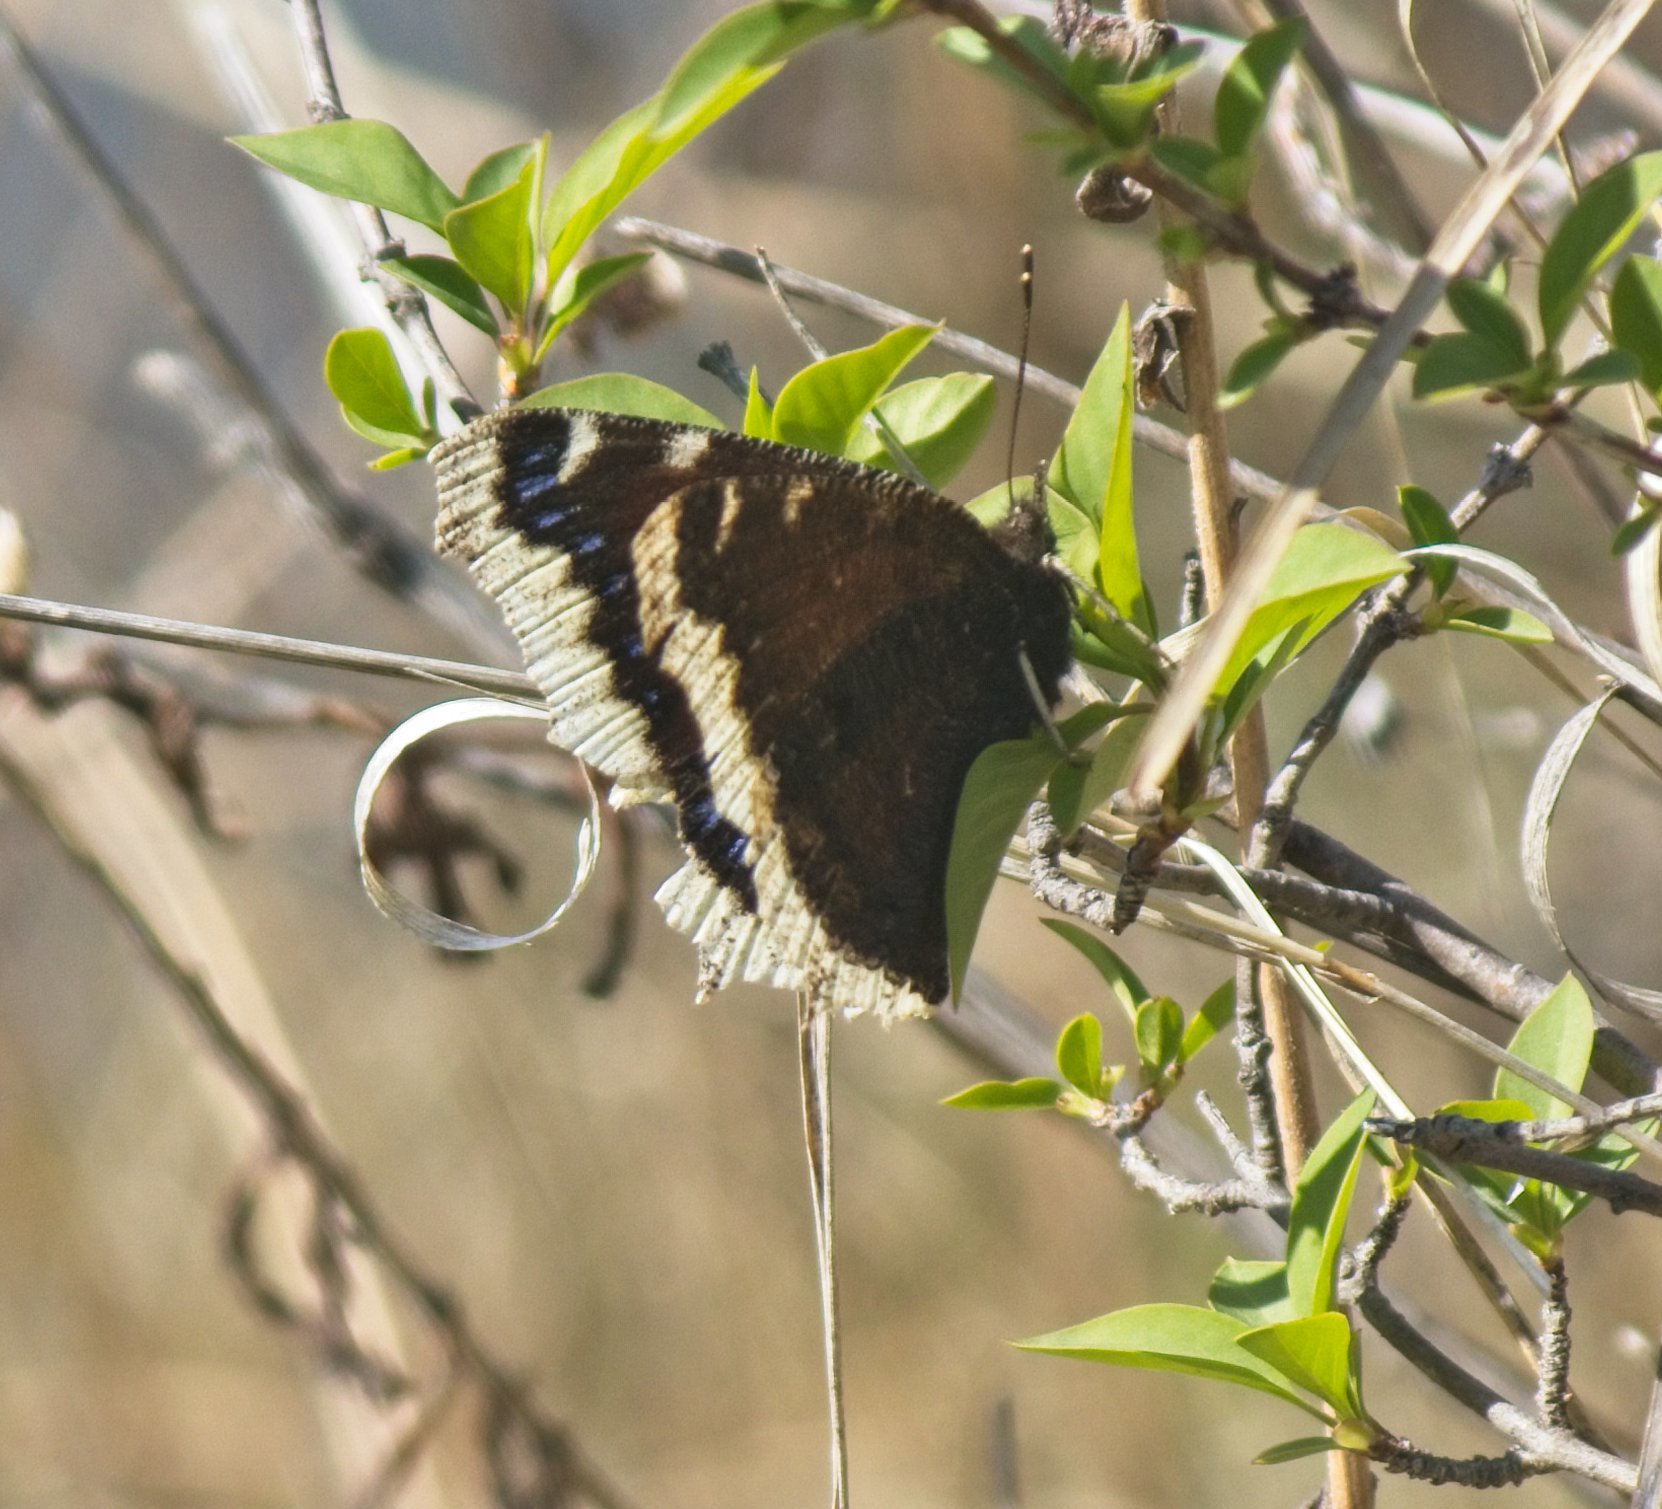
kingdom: Animalia
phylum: Arthropoda
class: Insecta
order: Lepidoptera
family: Nymphalidae
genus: Nymphalis
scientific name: Nymphalis antiopa
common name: Camberwell beauty
